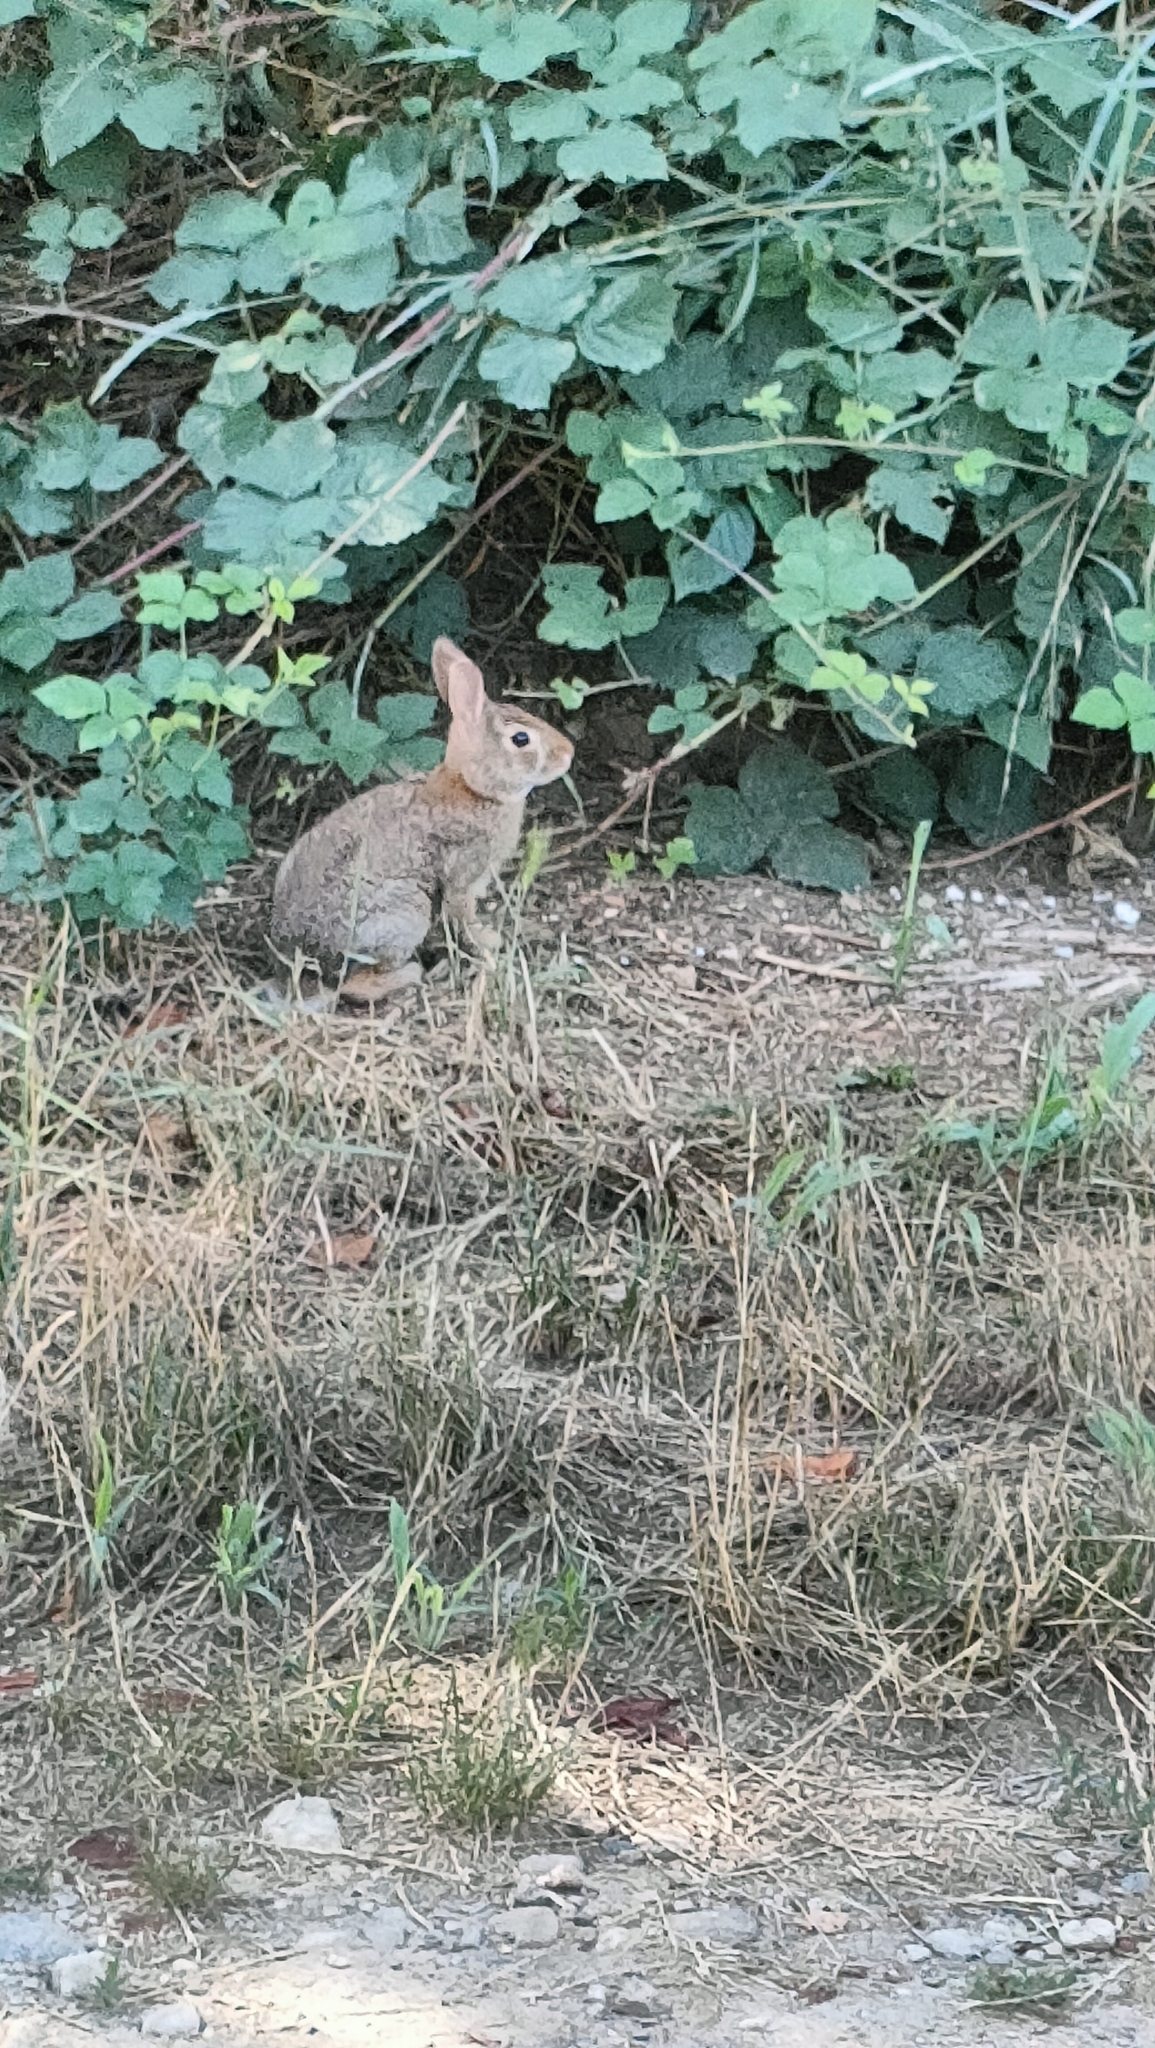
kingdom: Animalia
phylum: Chordata
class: Mammalia
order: Lagomorpha
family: Leporidae
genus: Sylvilagus
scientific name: Sylvilagus floridanus
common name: Eastern cottontail
